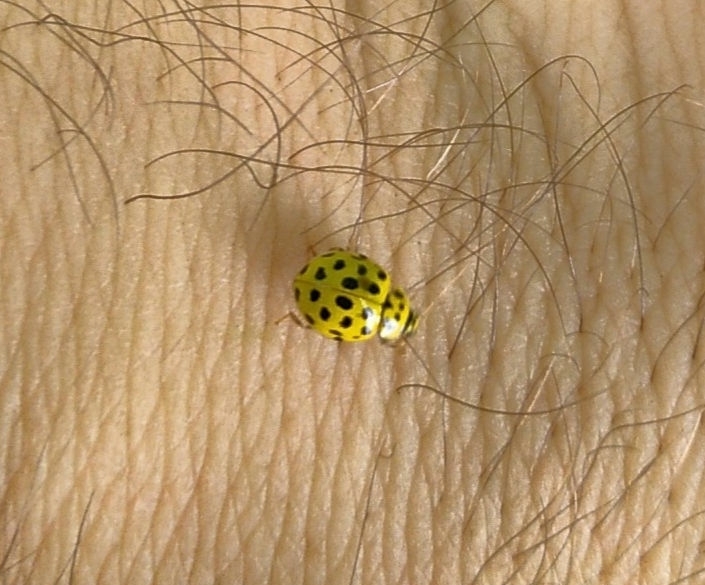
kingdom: Animalia
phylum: Arthropoda
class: Insecta
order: Coleoptera
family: Coccinellidae
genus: Psyllobora
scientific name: Psyllobora vigintiduopunctata
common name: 22-spot ladybird
